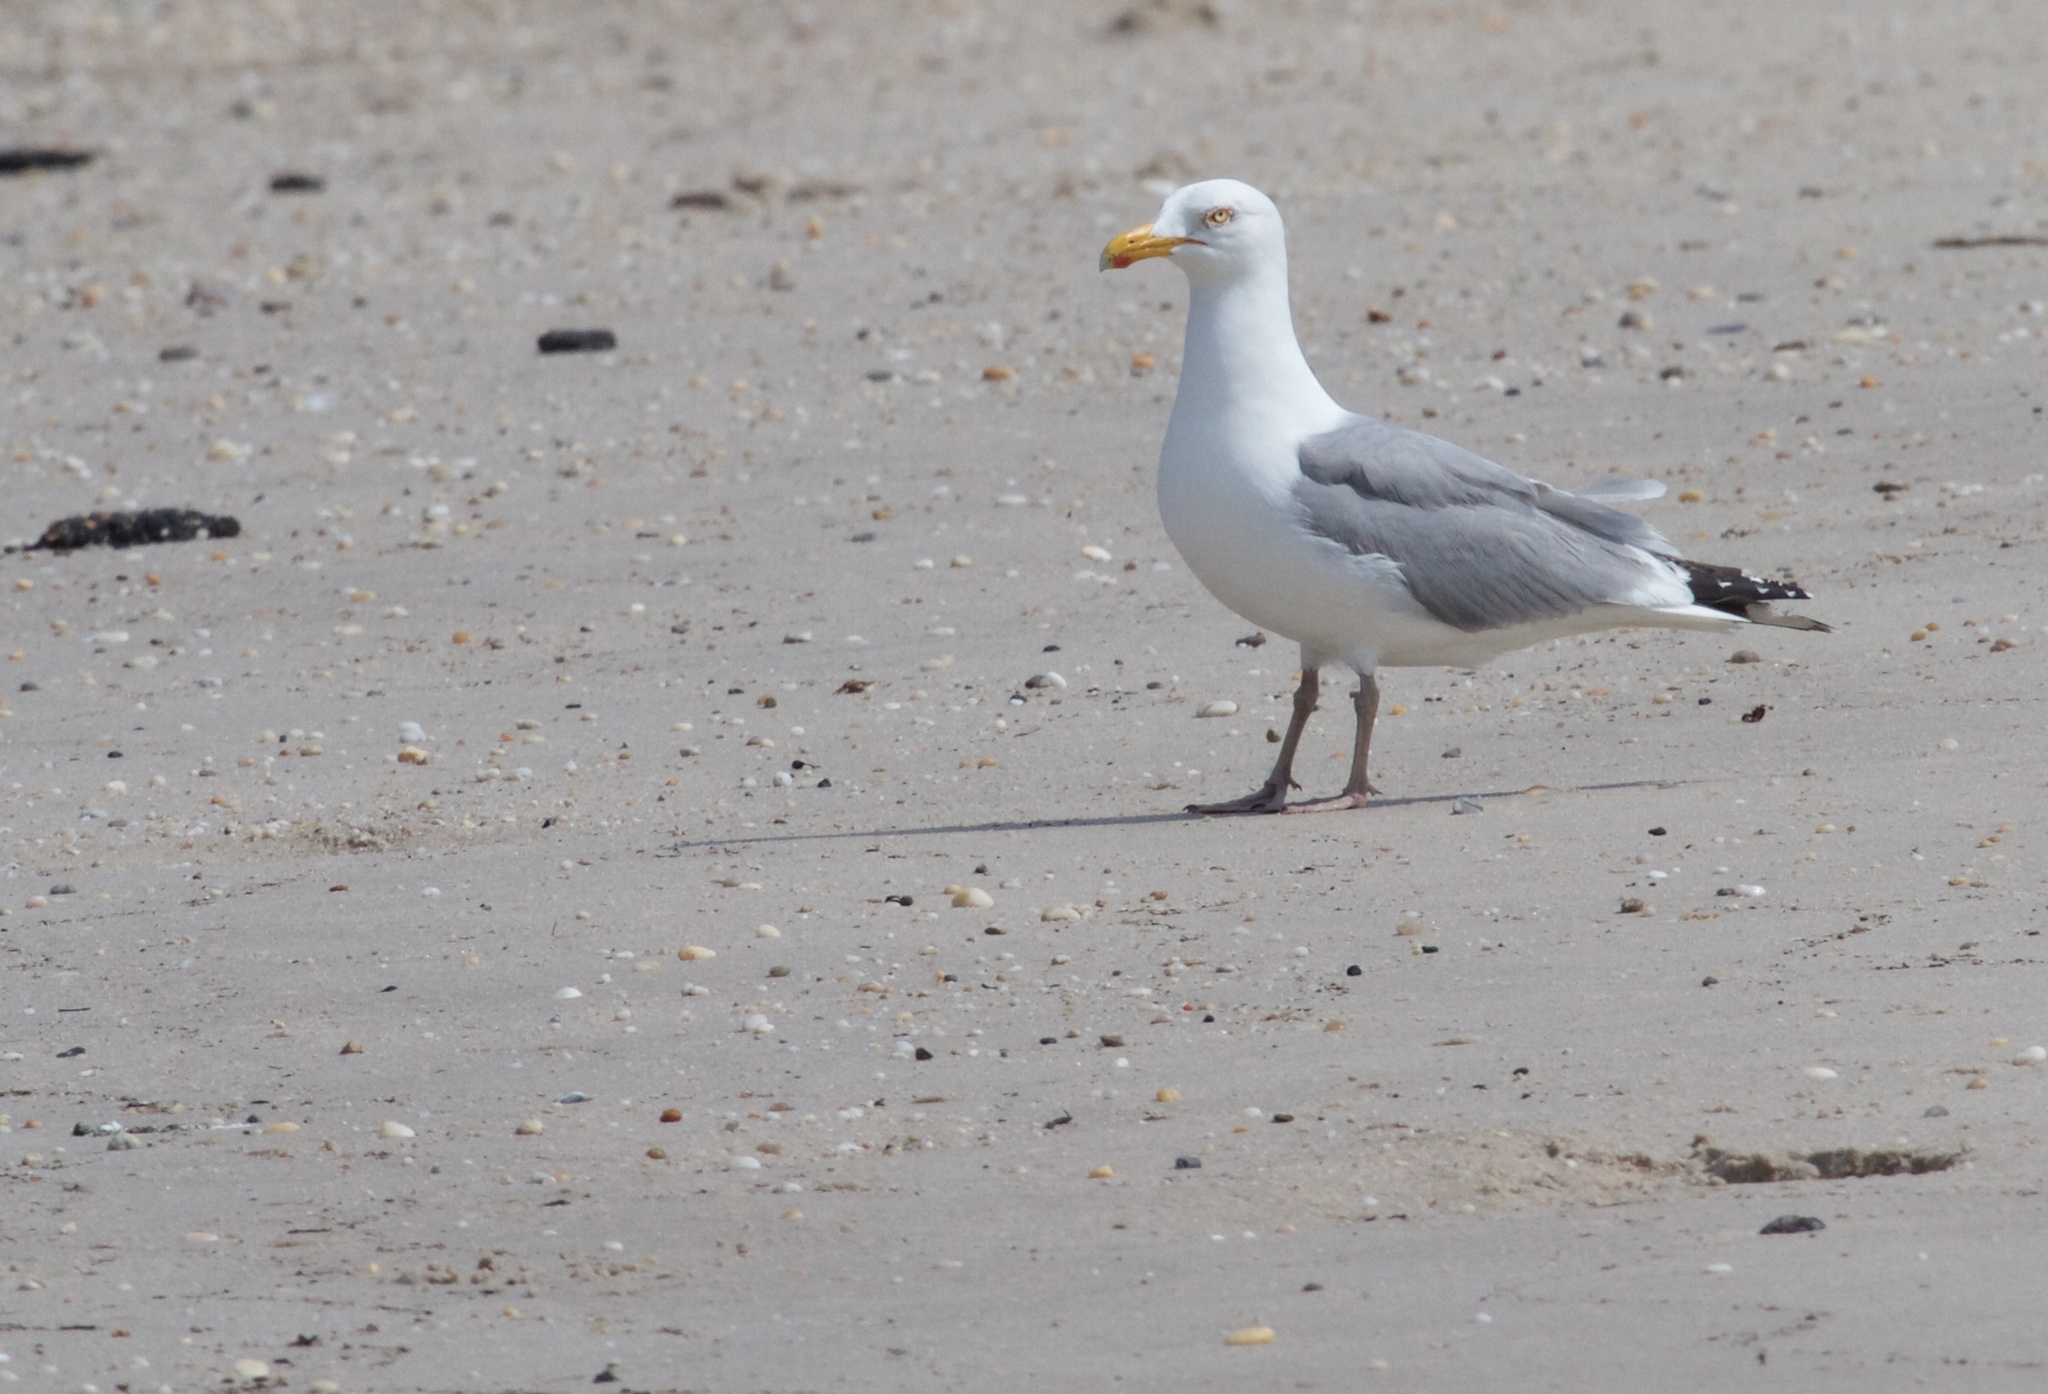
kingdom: Animalia
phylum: Chordata
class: Aves
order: Charadriiformes
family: Laridae
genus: Larus
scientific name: Larus argentatus
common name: Herring gull
